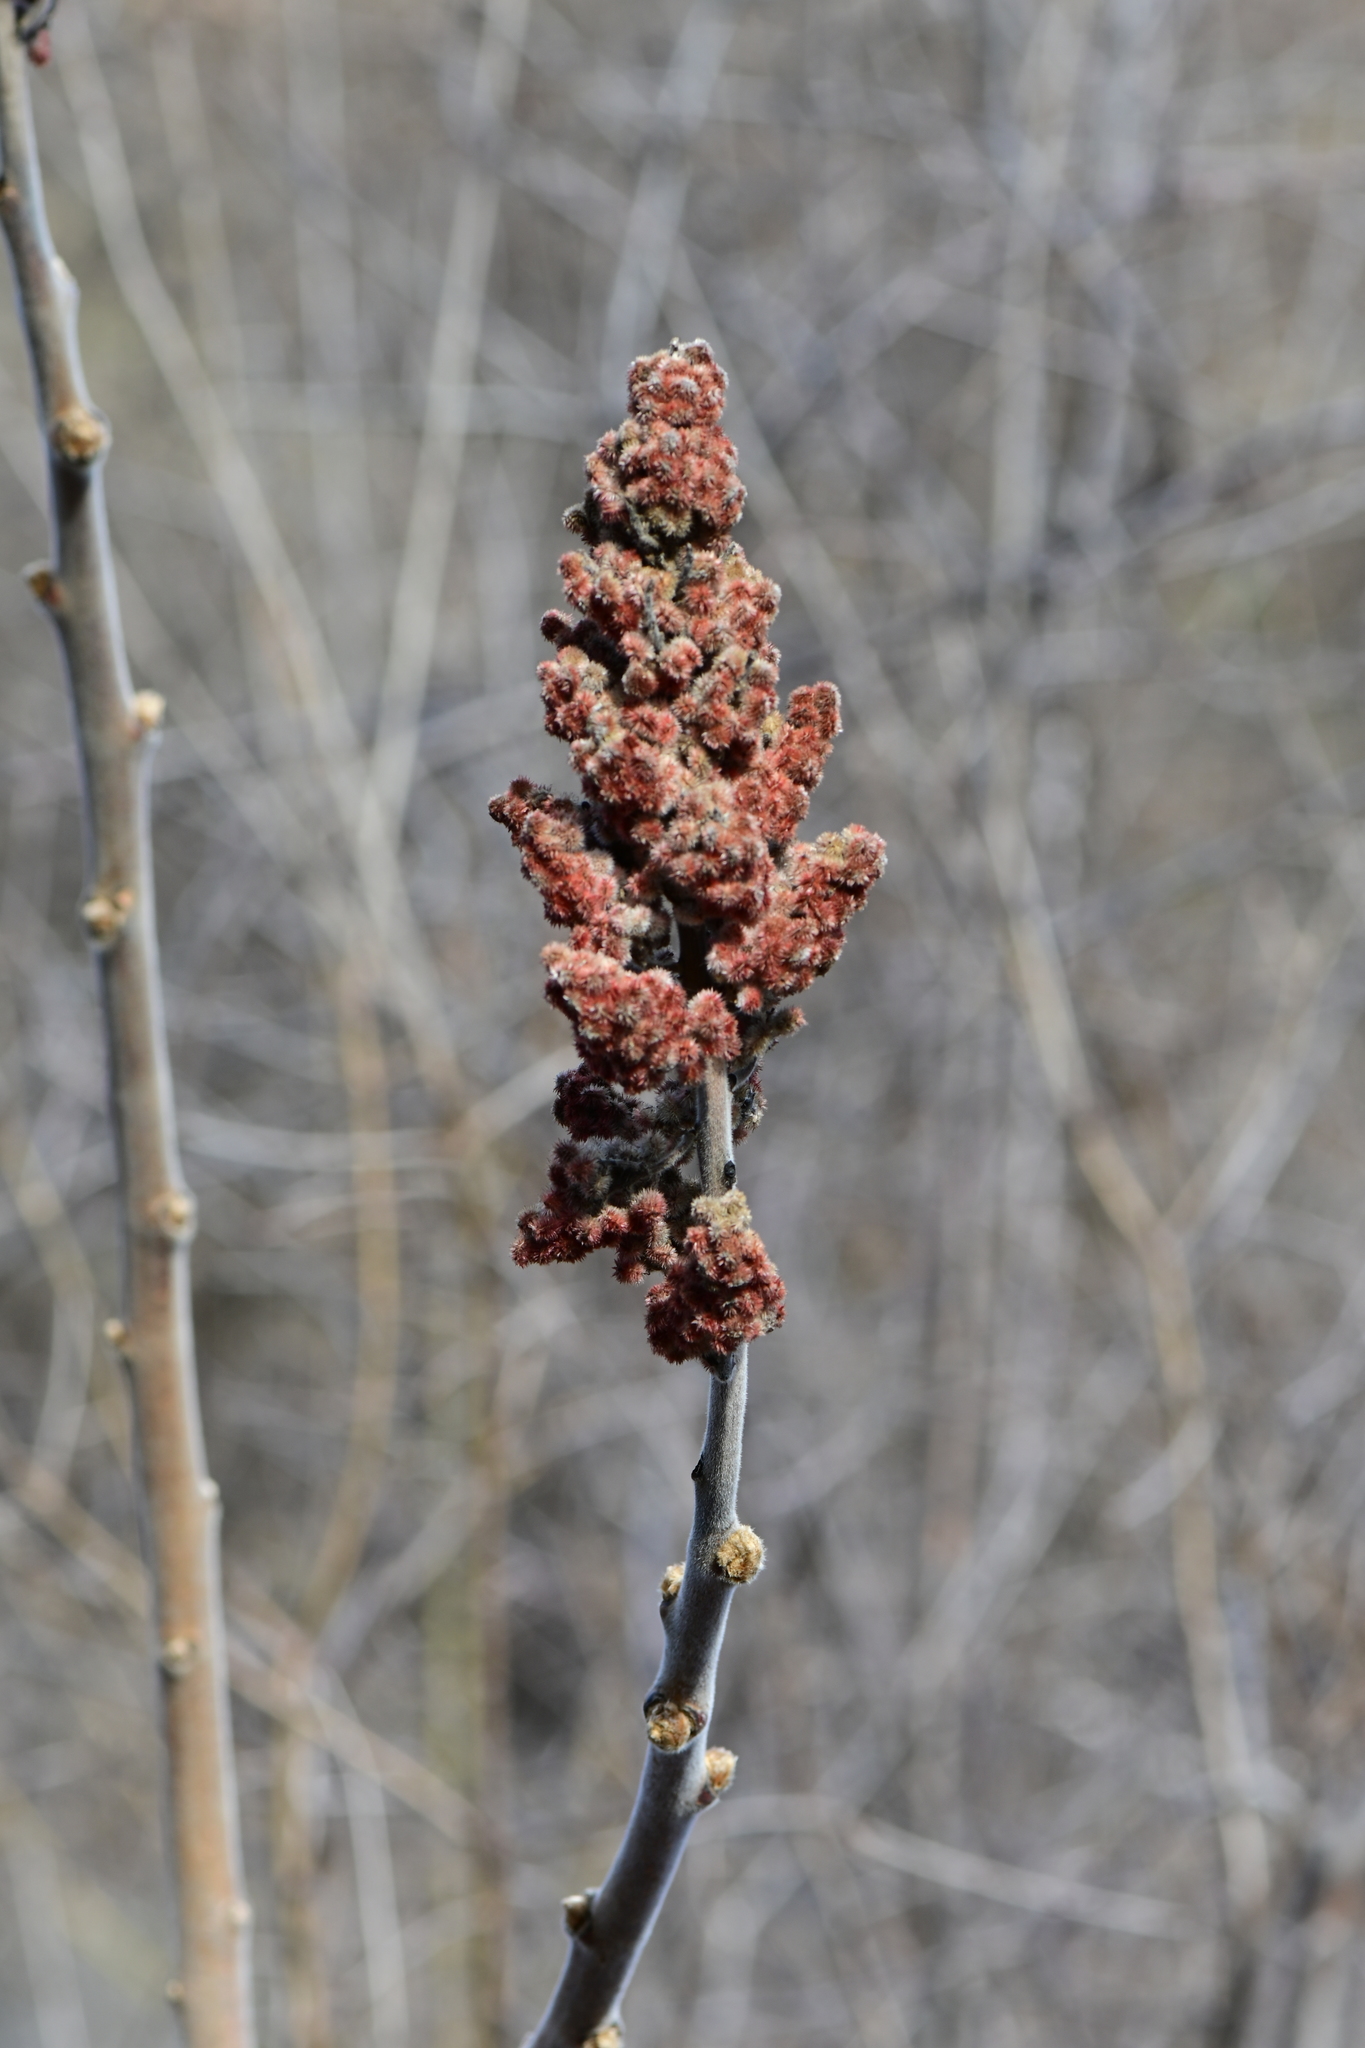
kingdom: Plantae
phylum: Tracheophyta
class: Magnoliopsida
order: Sapindales
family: Anacardiaceae
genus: Rhus
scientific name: Rhus typhina
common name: Staghorn sumac
